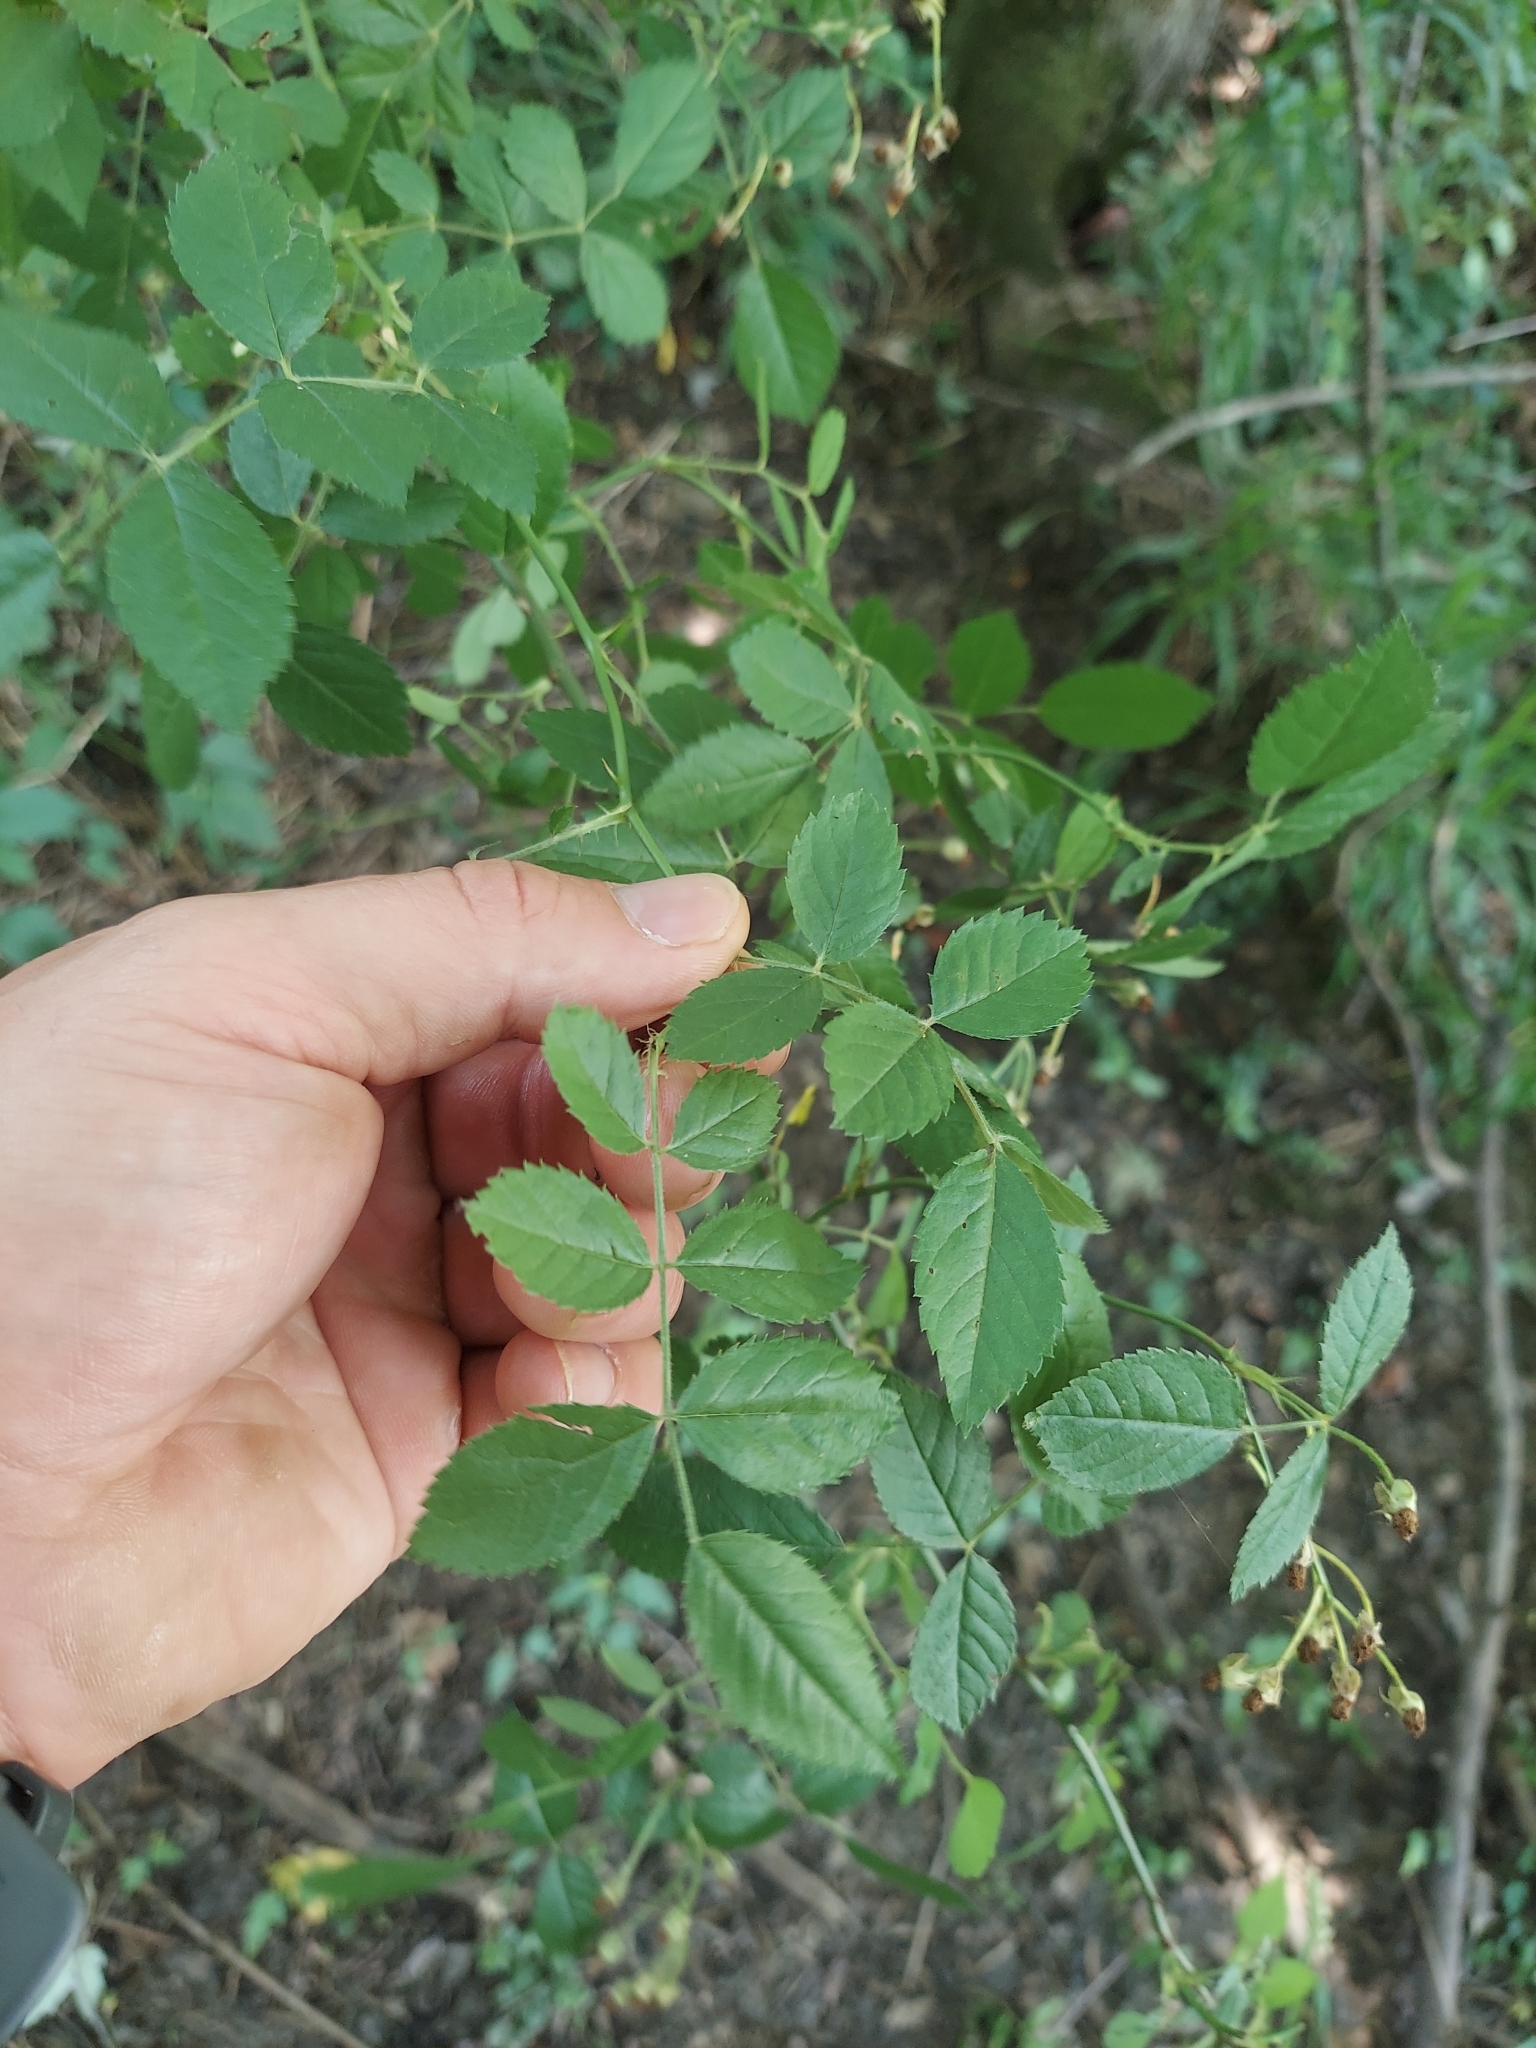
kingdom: Plantae
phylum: Tracheophyta
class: Magnoliopsida
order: Rosales
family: Rosaceae
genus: Rosa
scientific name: Rosa multiflora
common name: Multiflora rose
